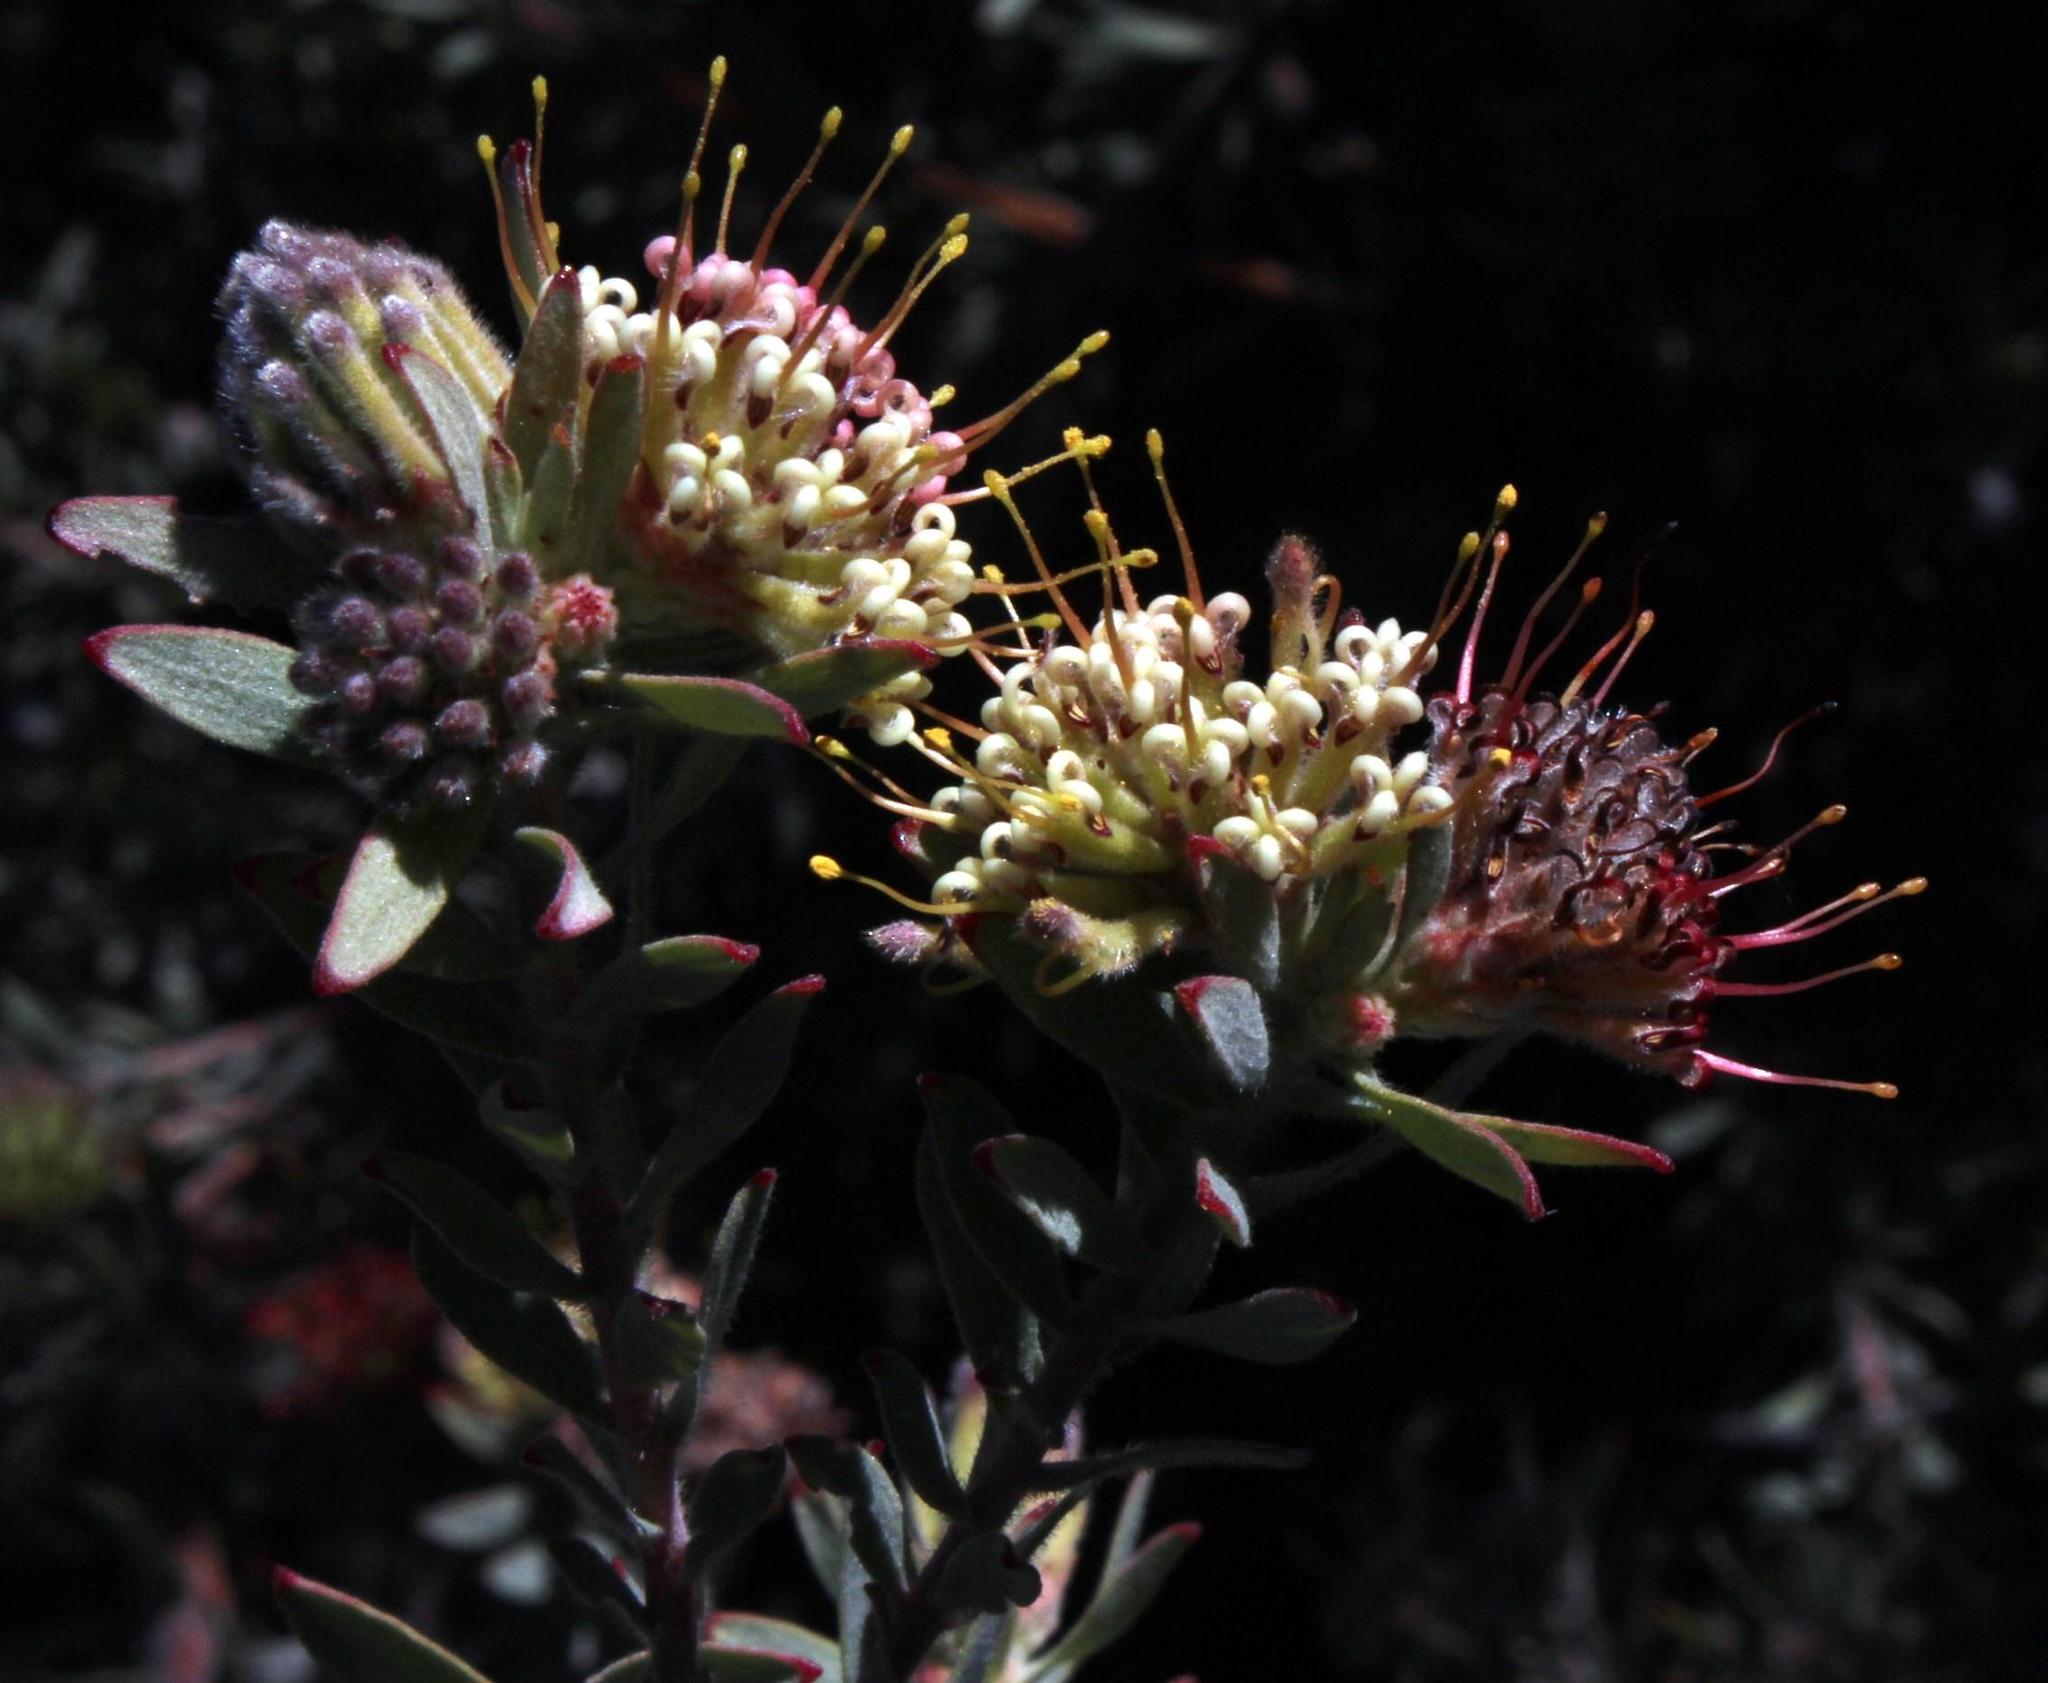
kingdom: Plantae
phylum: Tracheophyta
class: Magnoliopsida
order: Proteales
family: Proteaceae
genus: Leucospermum
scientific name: Leucospermum wittebergense
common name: Swartberg pincushion
